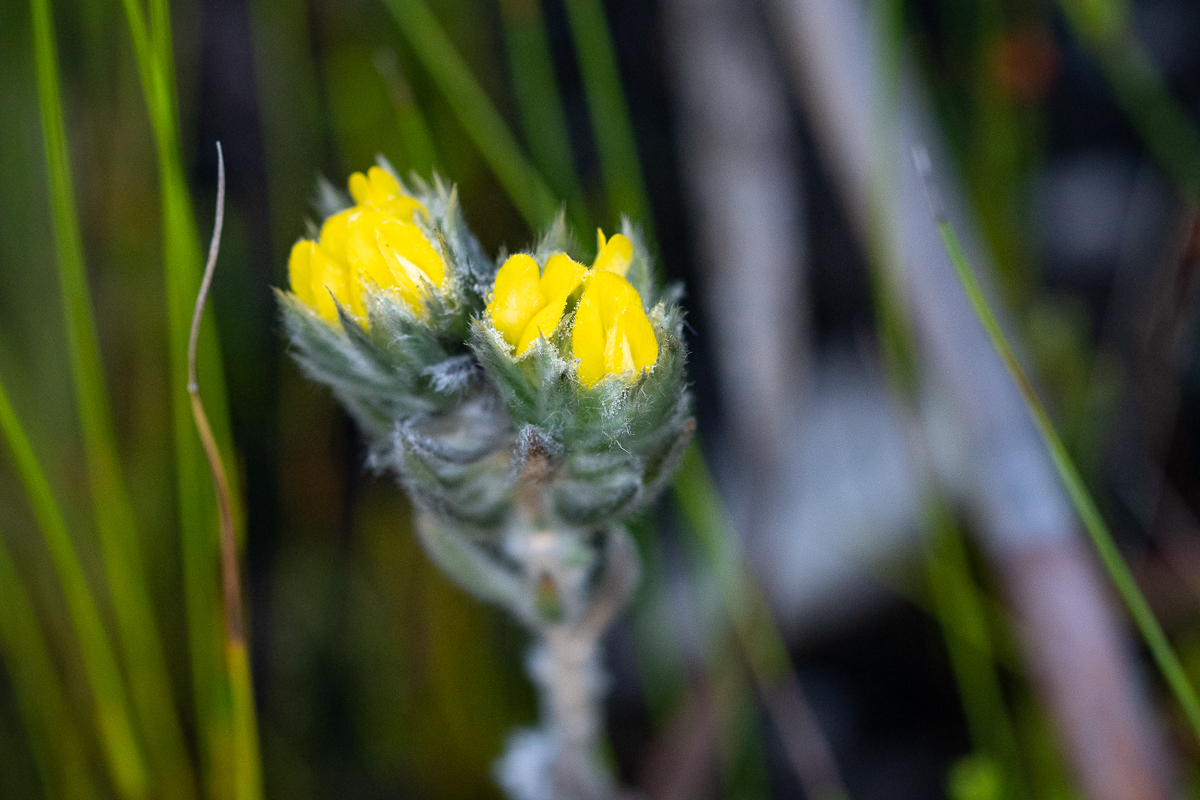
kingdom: Plantae
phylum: Tracheophyta
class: Magnoliopsida
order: Fabales
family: Fabaceae
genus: Aspalathus
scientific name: Aspalathus dunsdoniana
